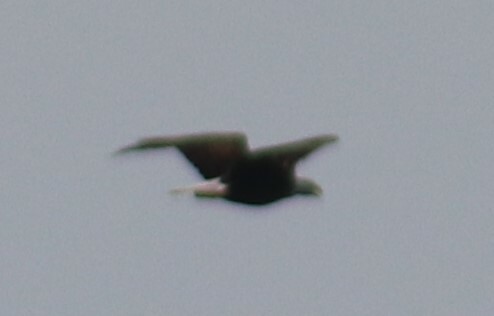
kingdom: Animalia
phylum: Chordata
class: Aves
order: Accipitriformes
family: Accipitridae
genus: Haliaeetus
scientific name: Haliaeetus leucocephalus
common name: Bald eagle
